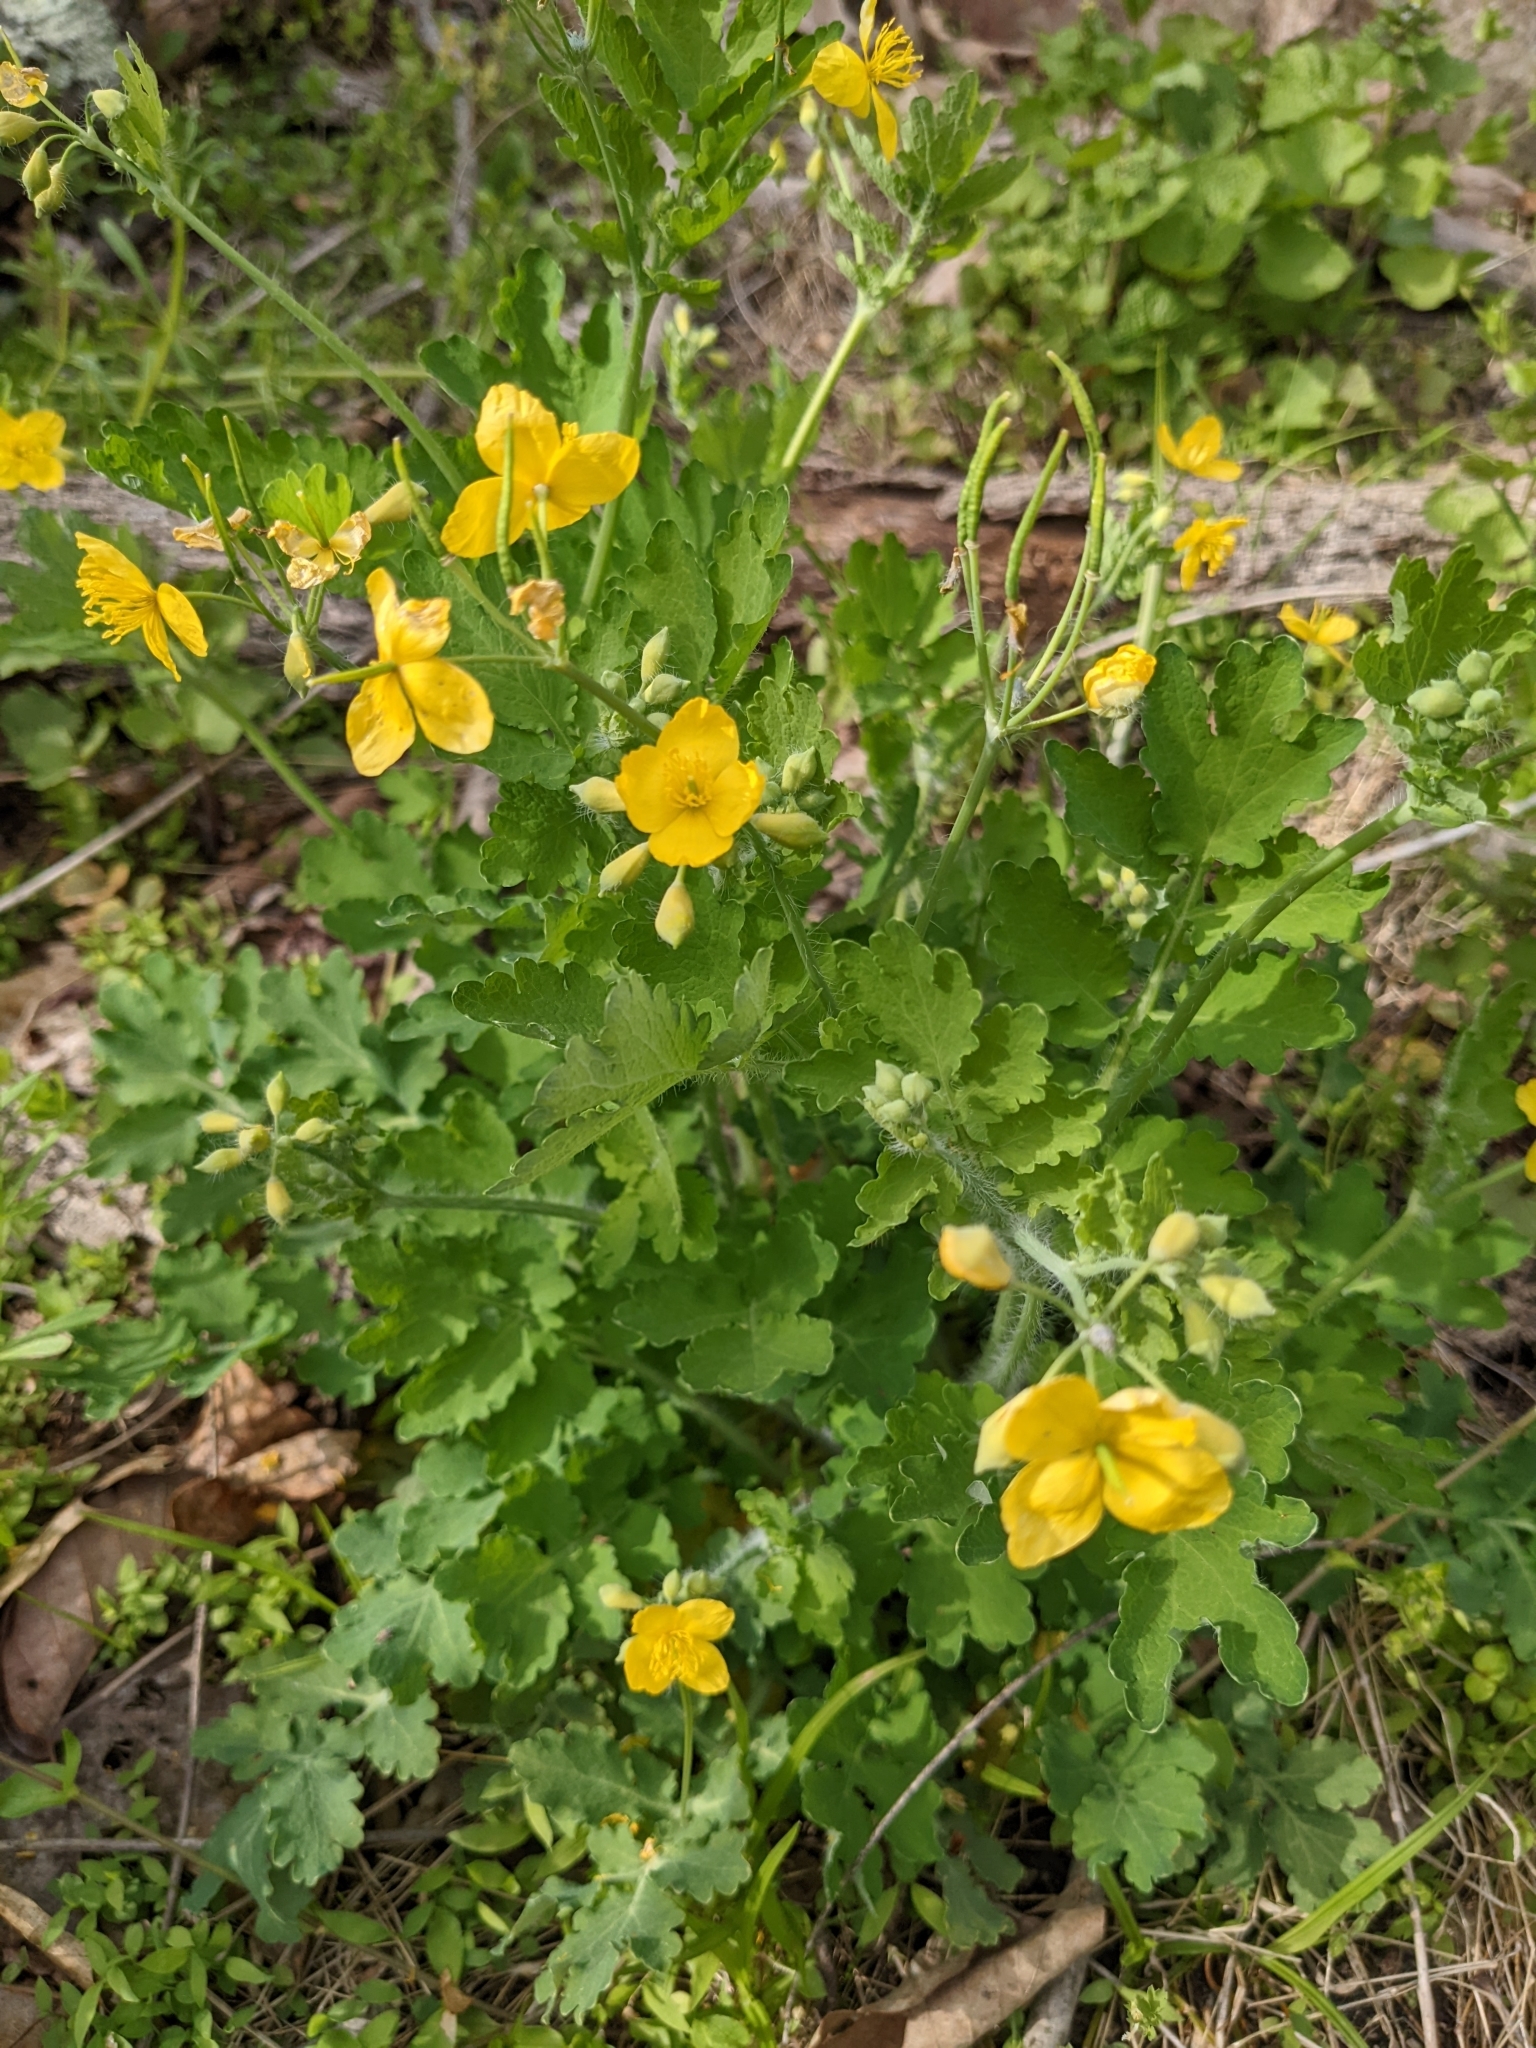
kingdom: Plantae
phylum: Tracheophyta
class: Magnoliopsida
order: Ranunculales
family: Papaveraceae
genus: Chelidonium
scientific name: Chelidonium majus
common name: Greater celandine
